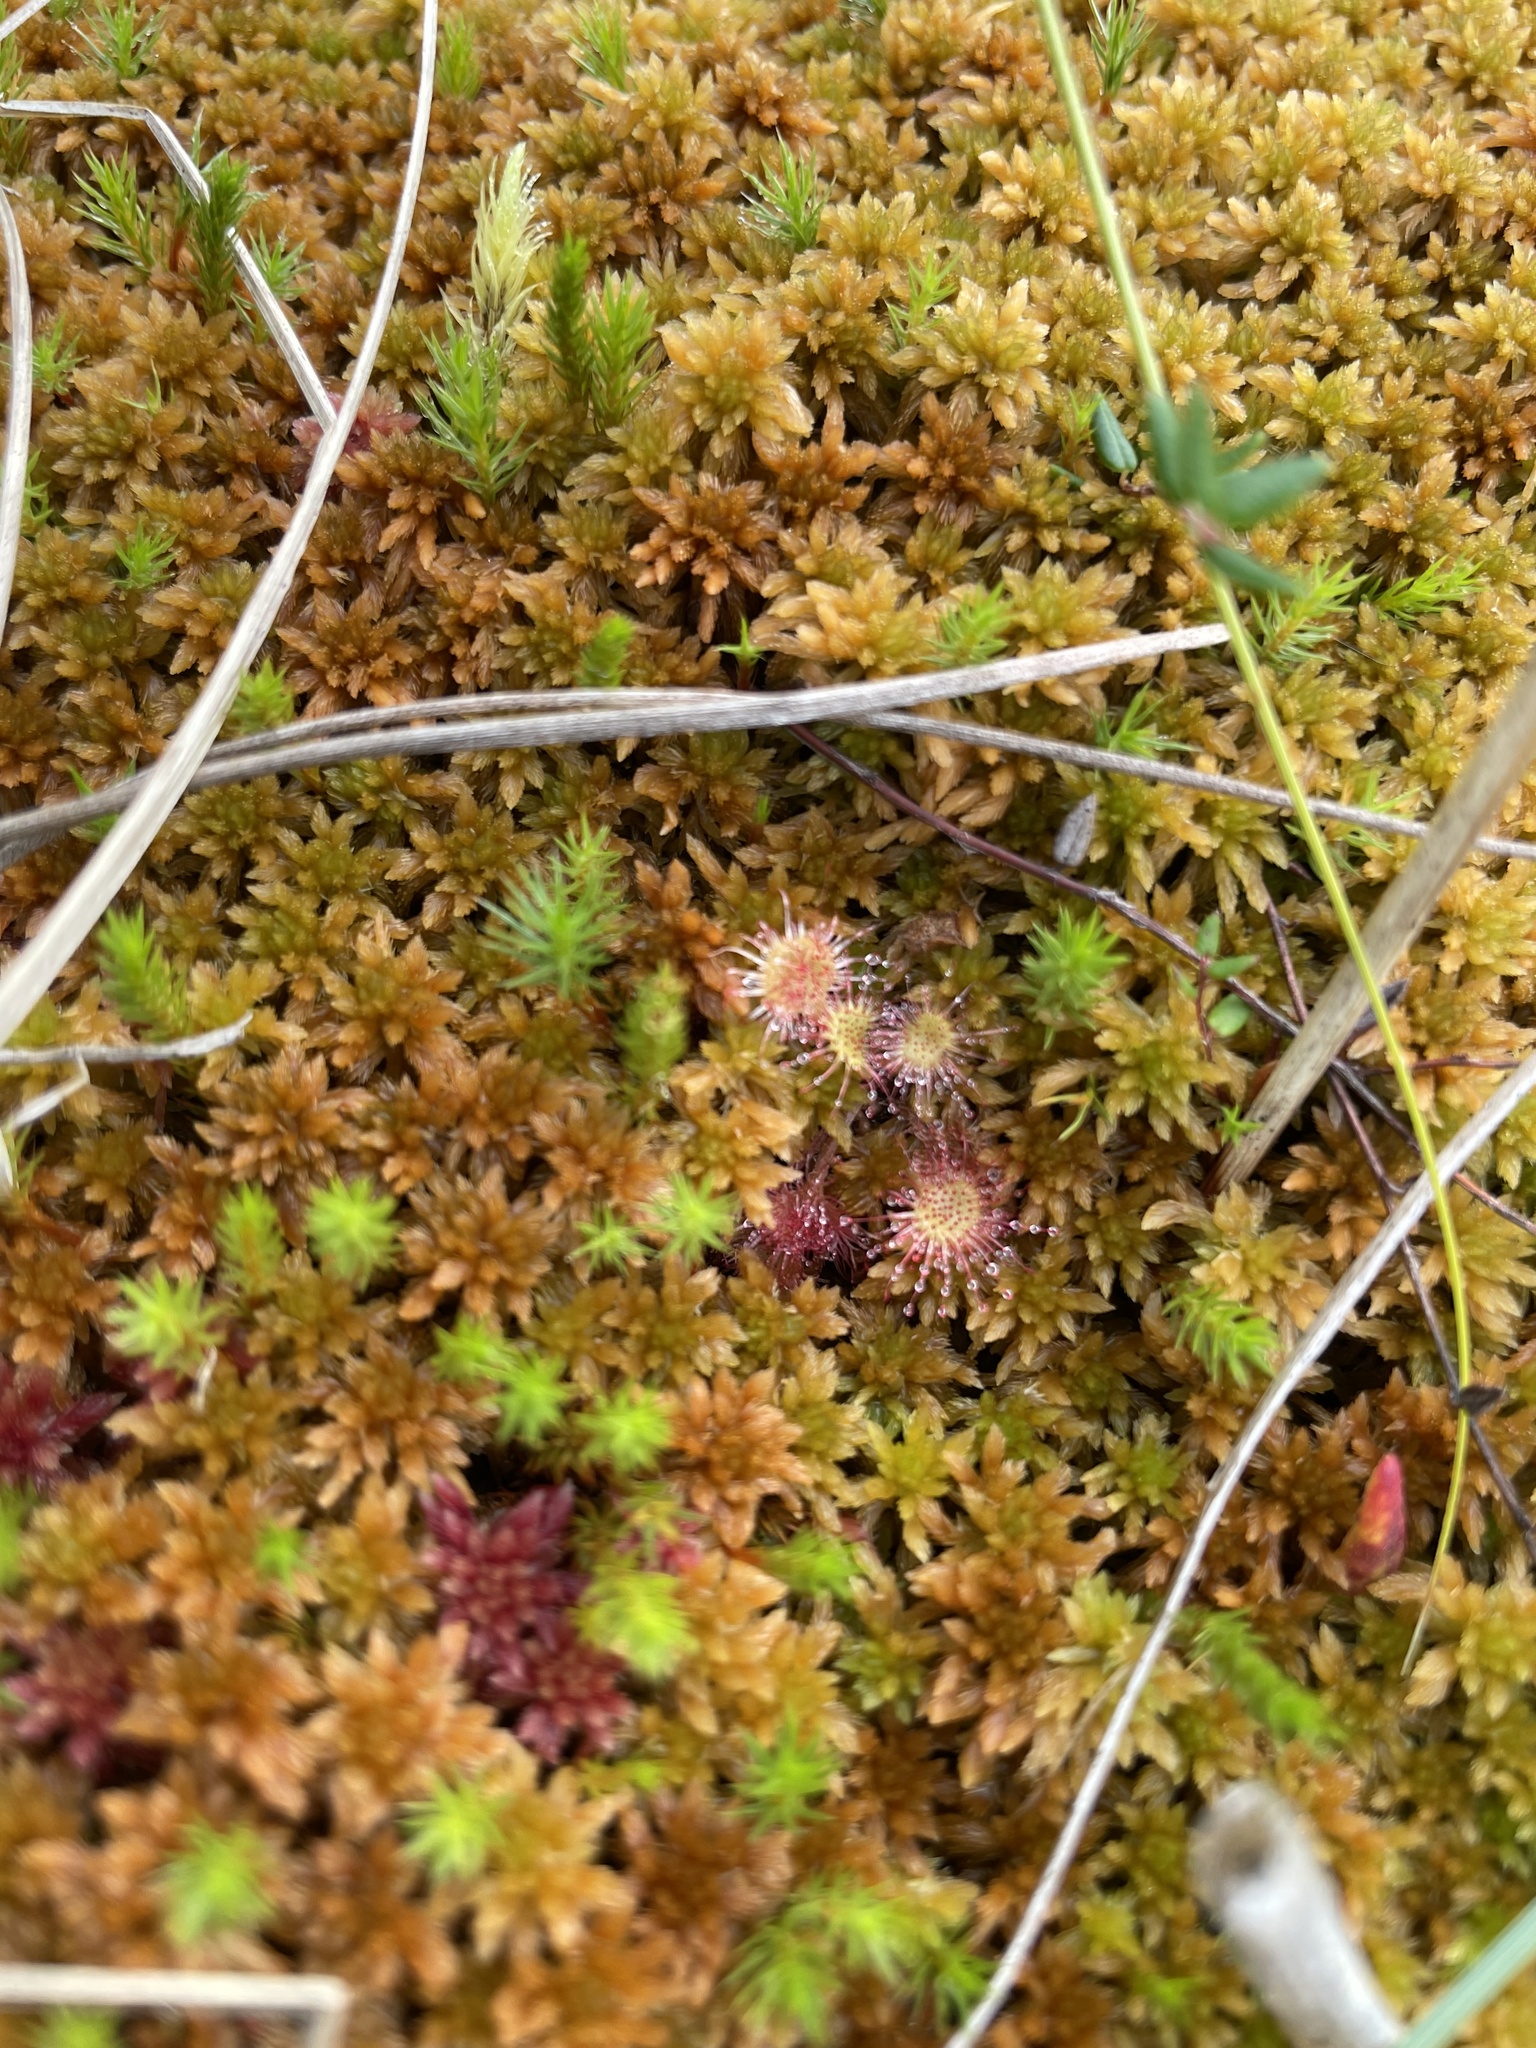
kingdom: Plantae
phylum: Tracheophyta
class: Magnoliopsida
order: Caryophyllales
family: Droseraceae
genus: Drosera
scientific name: Drosera rotundifolia
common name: Round-leaved sundew
